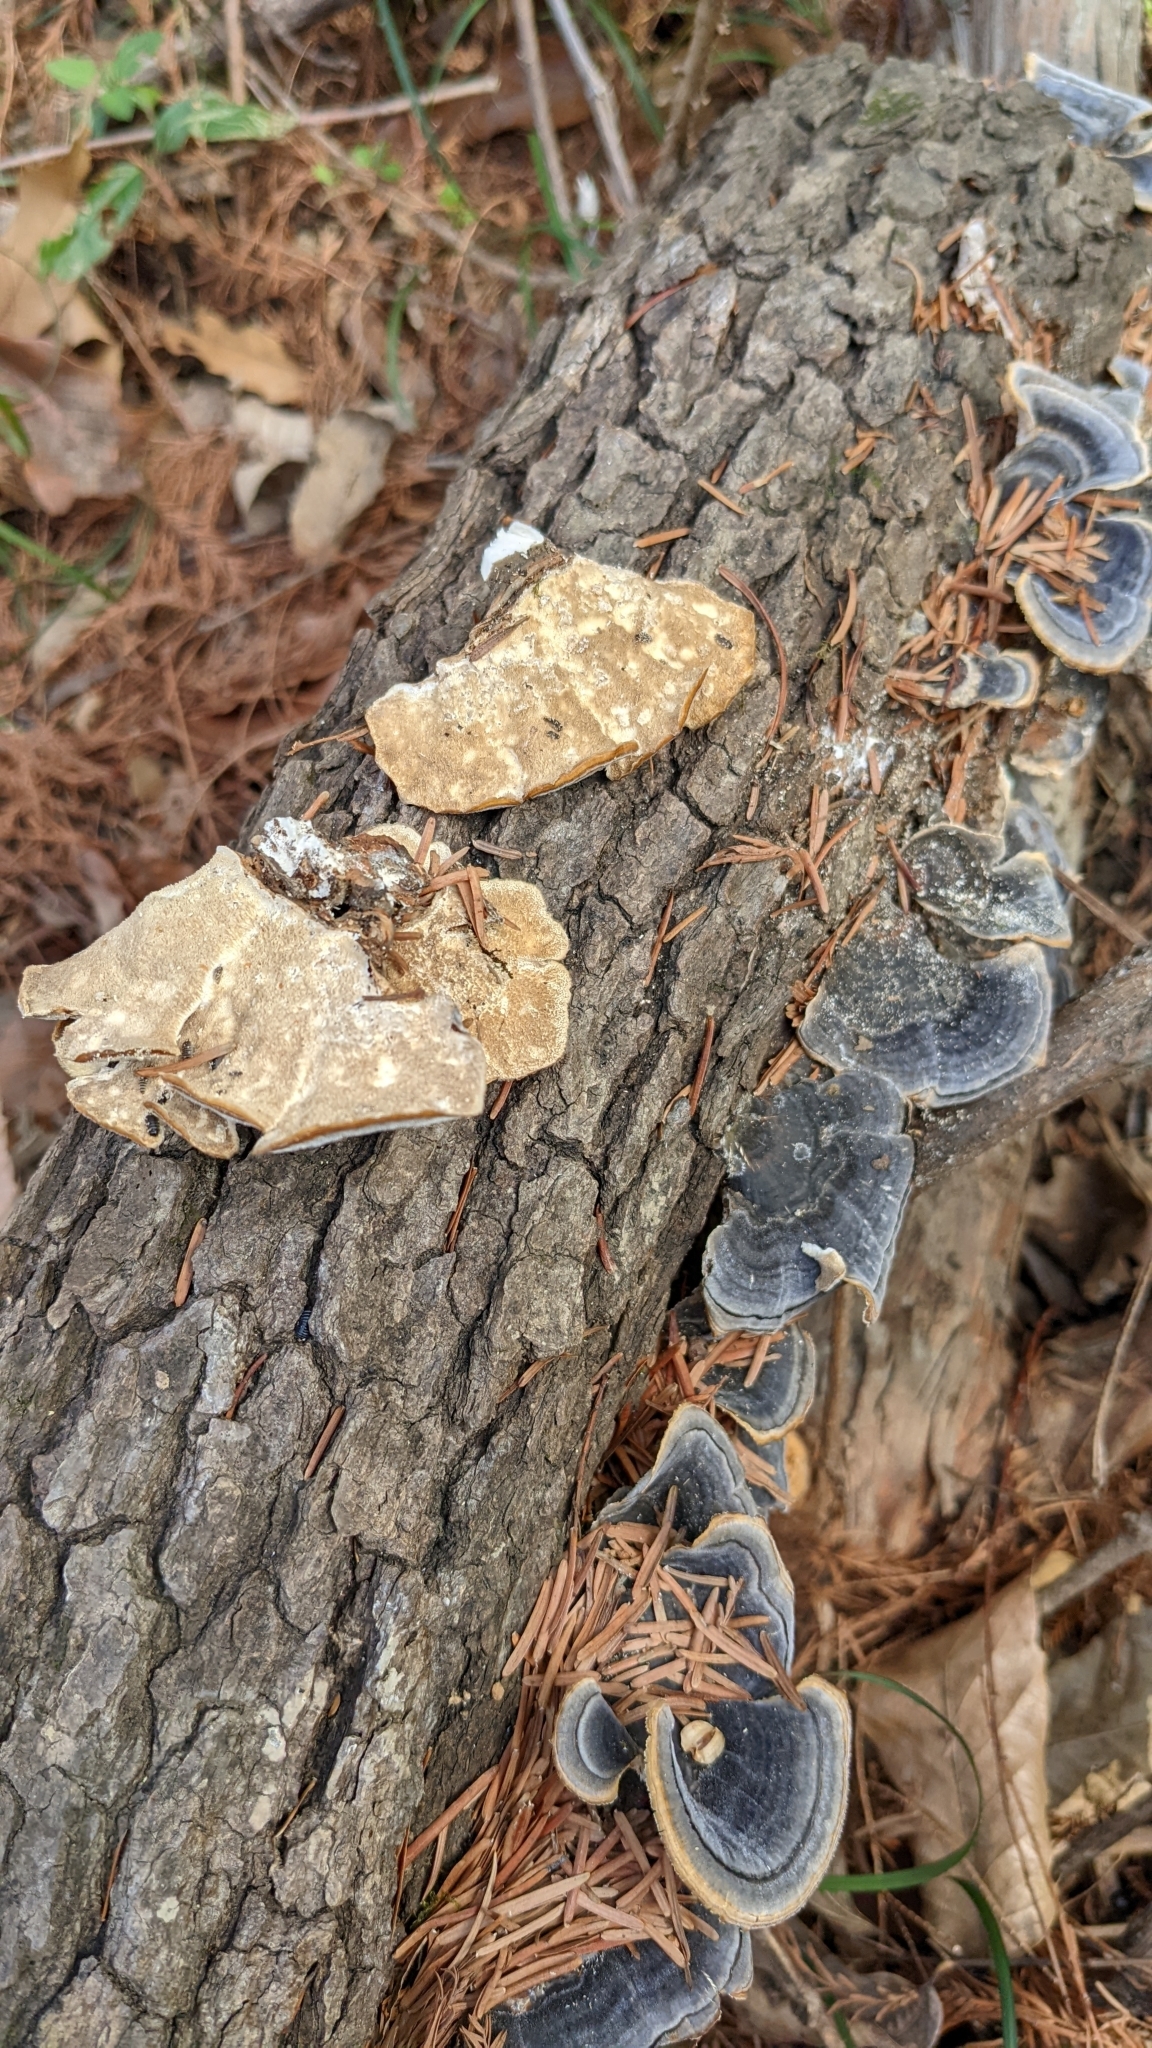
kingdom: Fungi
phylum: Basidiomycota
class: Agaricomycetes
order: Polyporales
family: Polyporaceae
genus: Trametes
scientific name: Trametes versicolor
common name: Turkeytail
